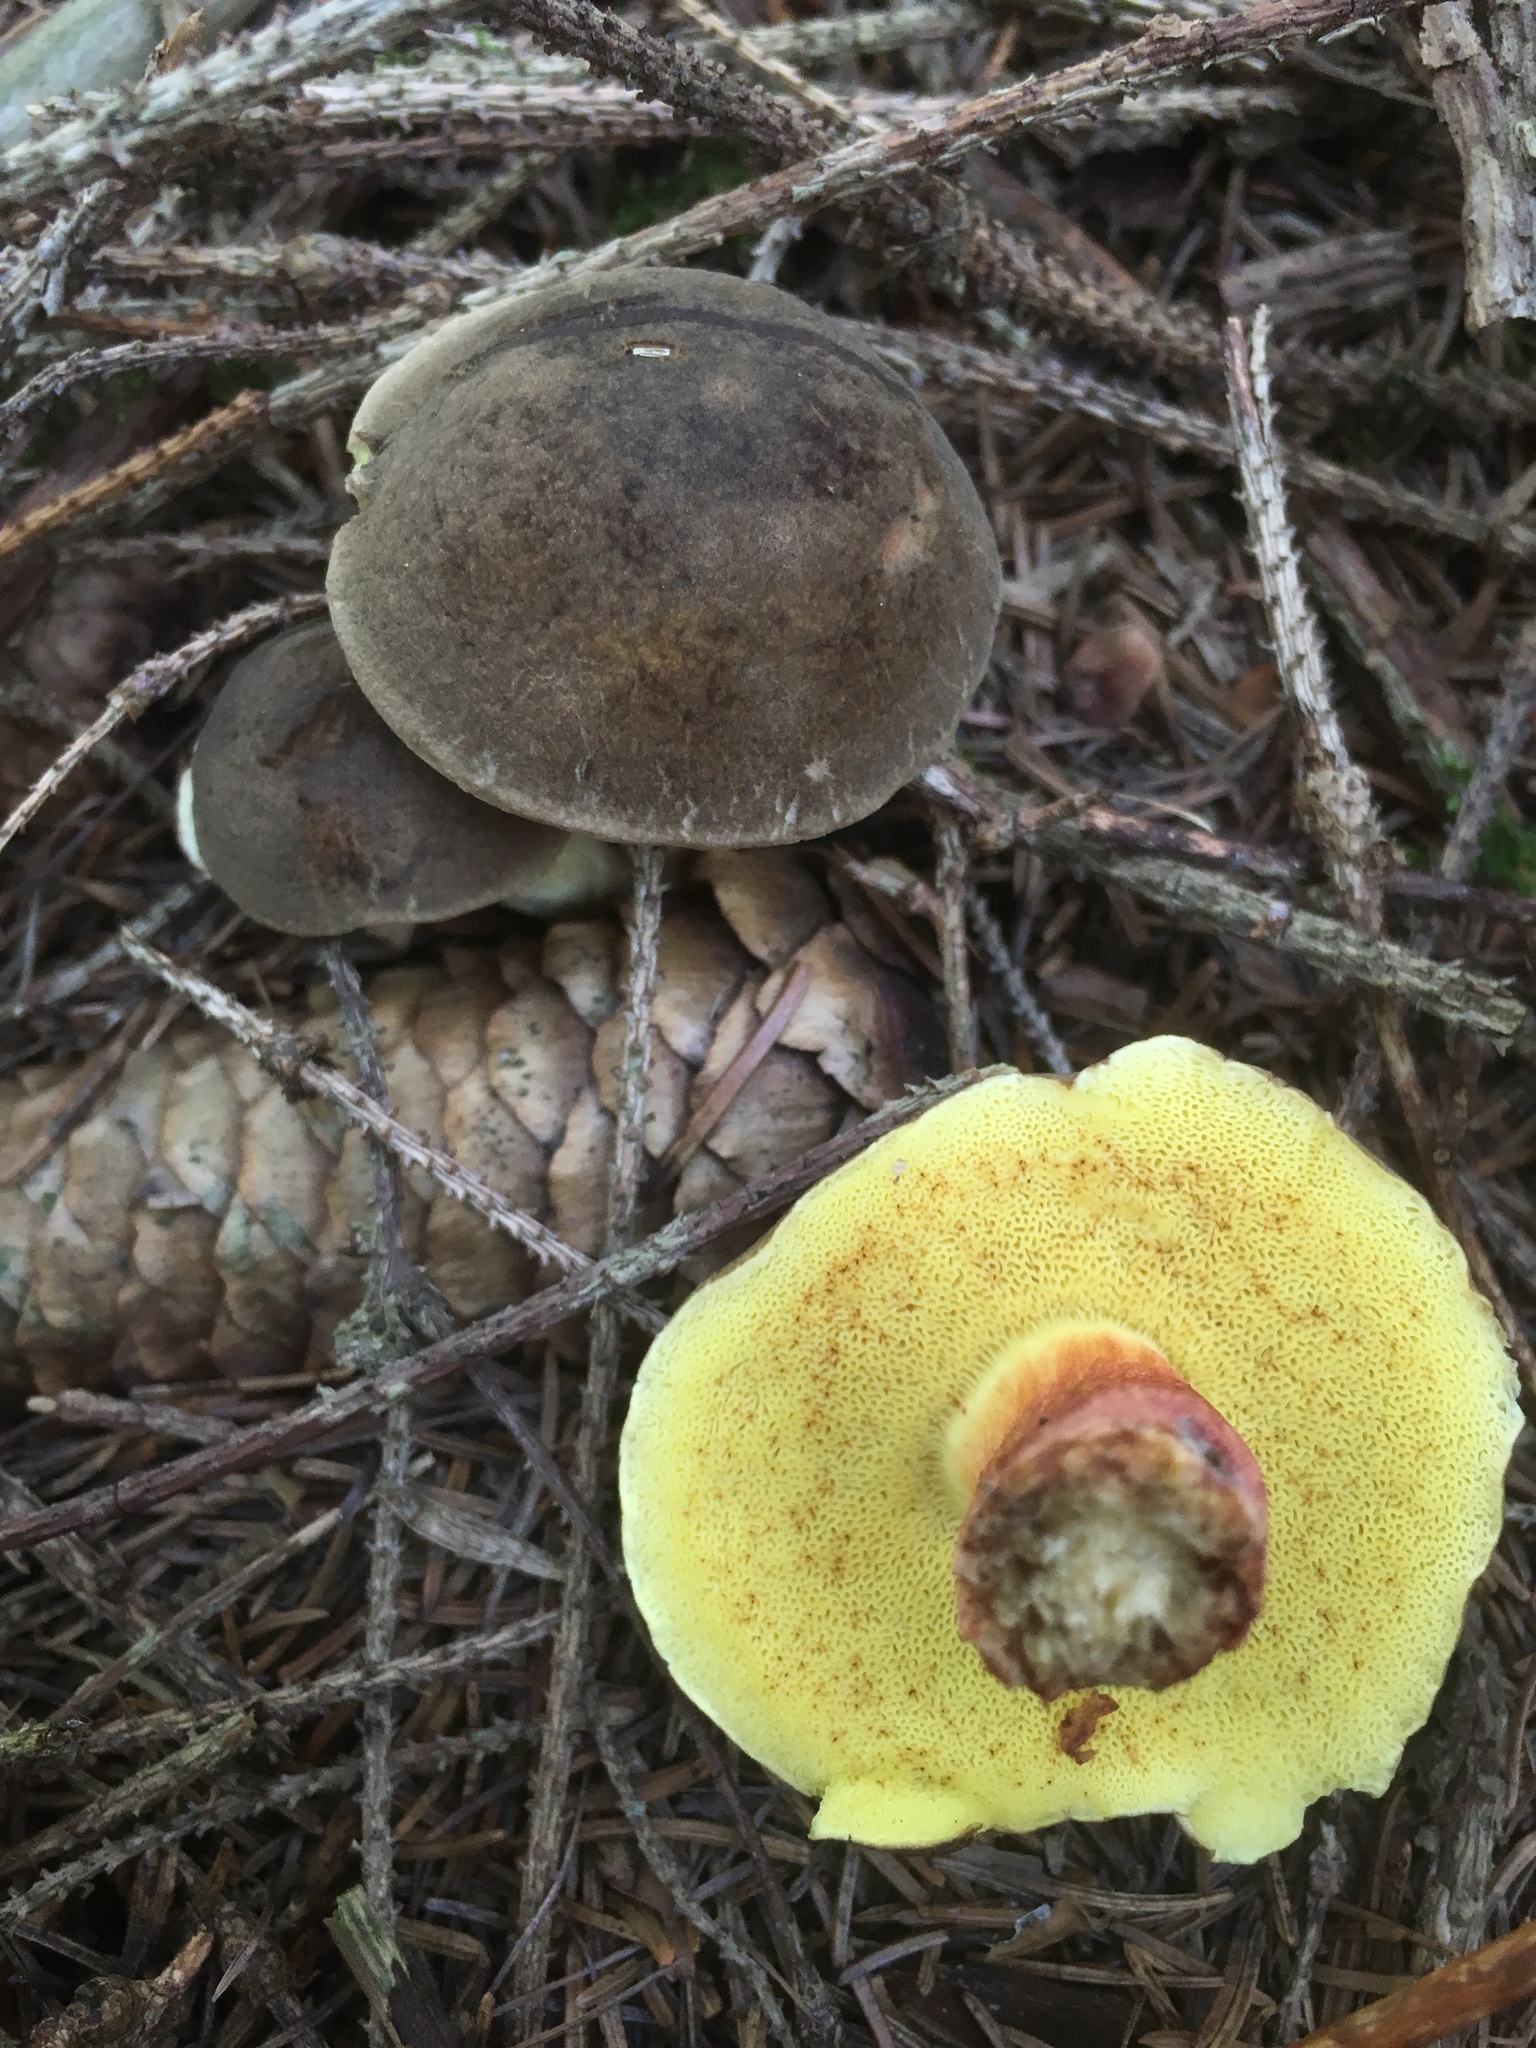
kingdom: Fungi
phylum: Basidiomycota
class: Agaricomycetes
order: Boletales
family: Boletaceae
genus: Xerocomellus
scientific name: Xerocomellus chrysenteron
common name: Red-cracking bolete
